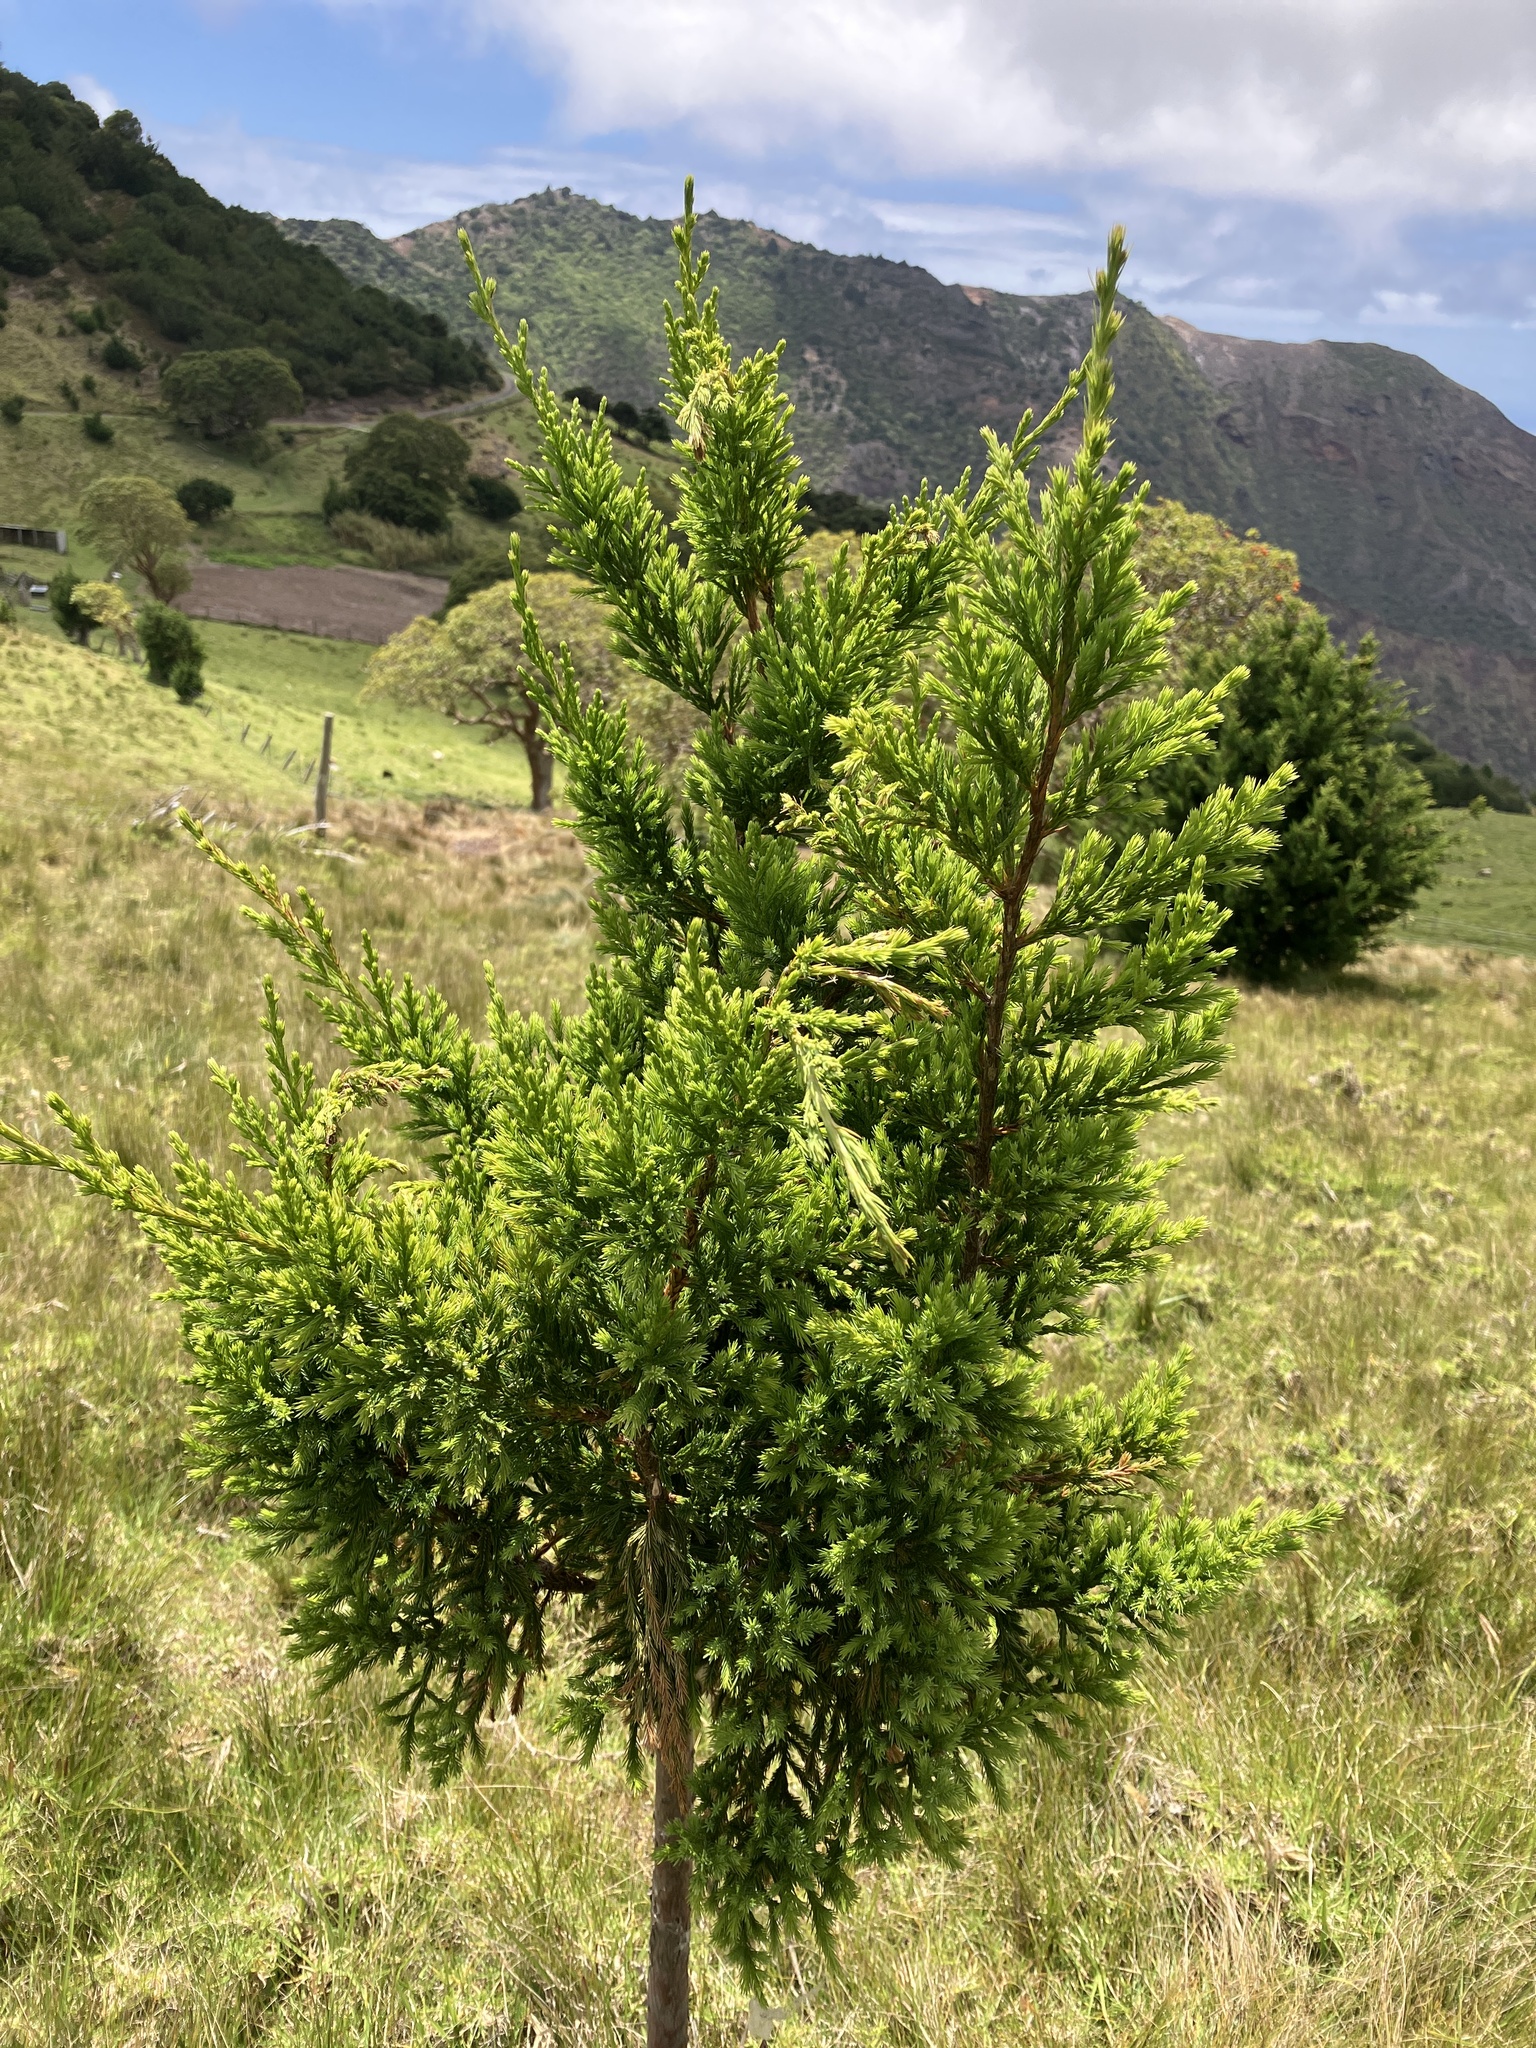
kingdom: Plantae
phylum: Tracheophyta
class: Pinopsida
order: Pinales
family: Cupressaceae
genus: Juniperus
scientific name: Juniperus bermudiana
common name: Bermuda juniper
